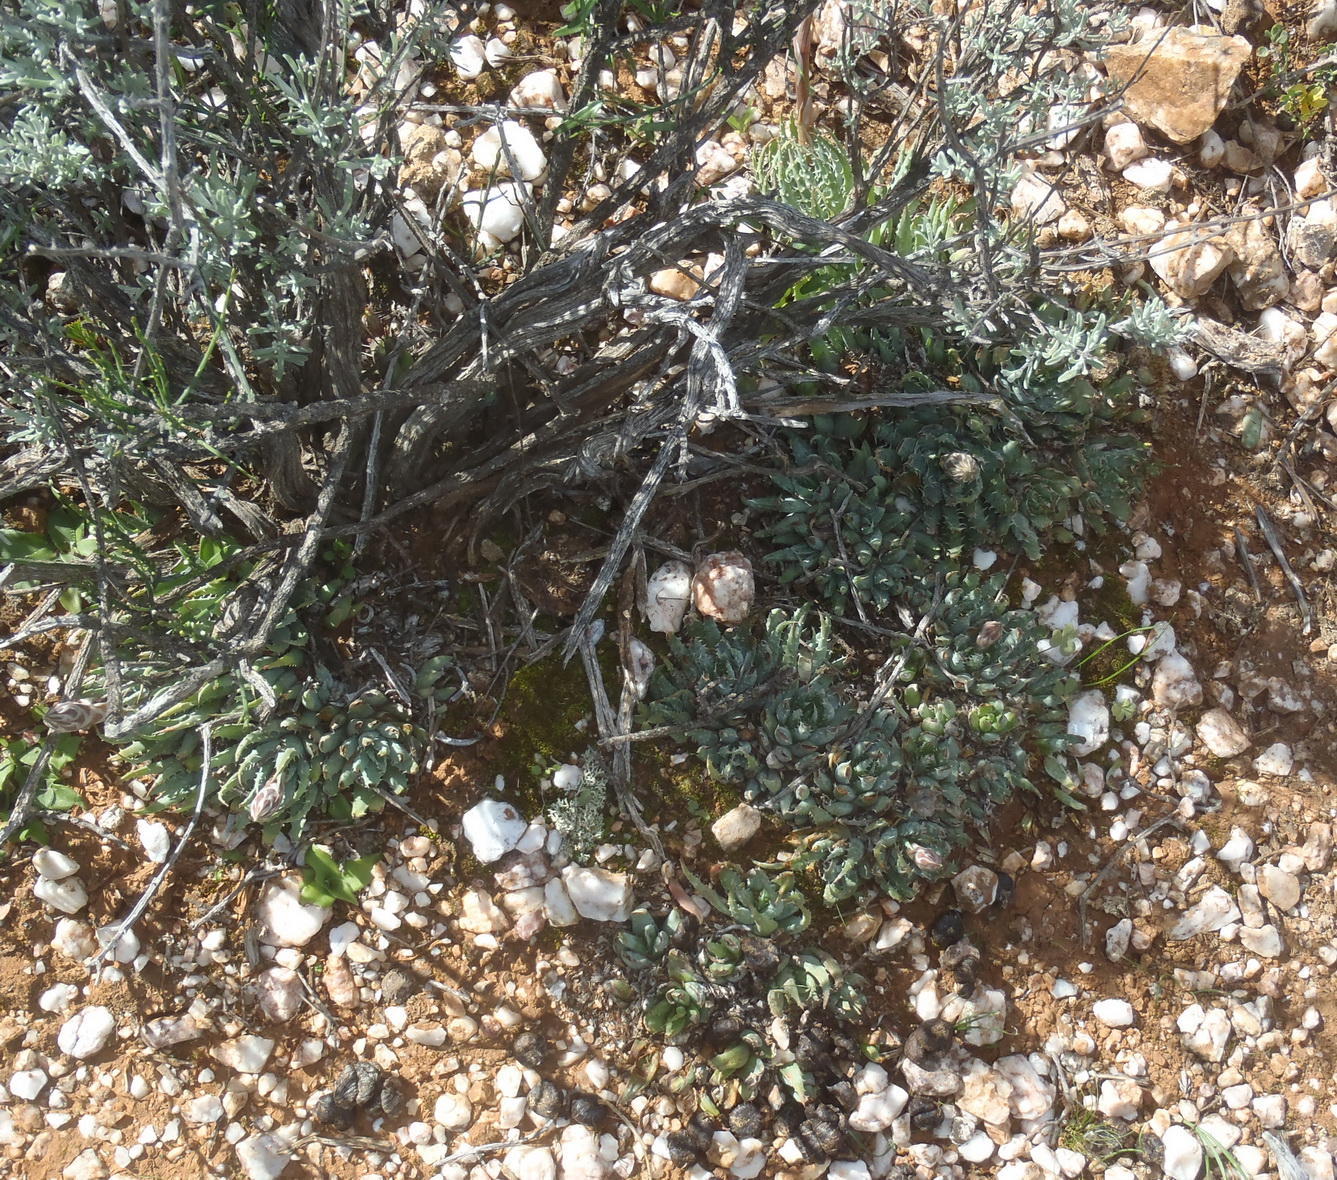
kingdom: Plantae
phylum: Tracheophyta
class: Liliopsida
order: Asparagales
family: Asphodelaceae
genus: Aloe
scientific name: Aloe humilis
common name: Dwarf hedgehog aloe
